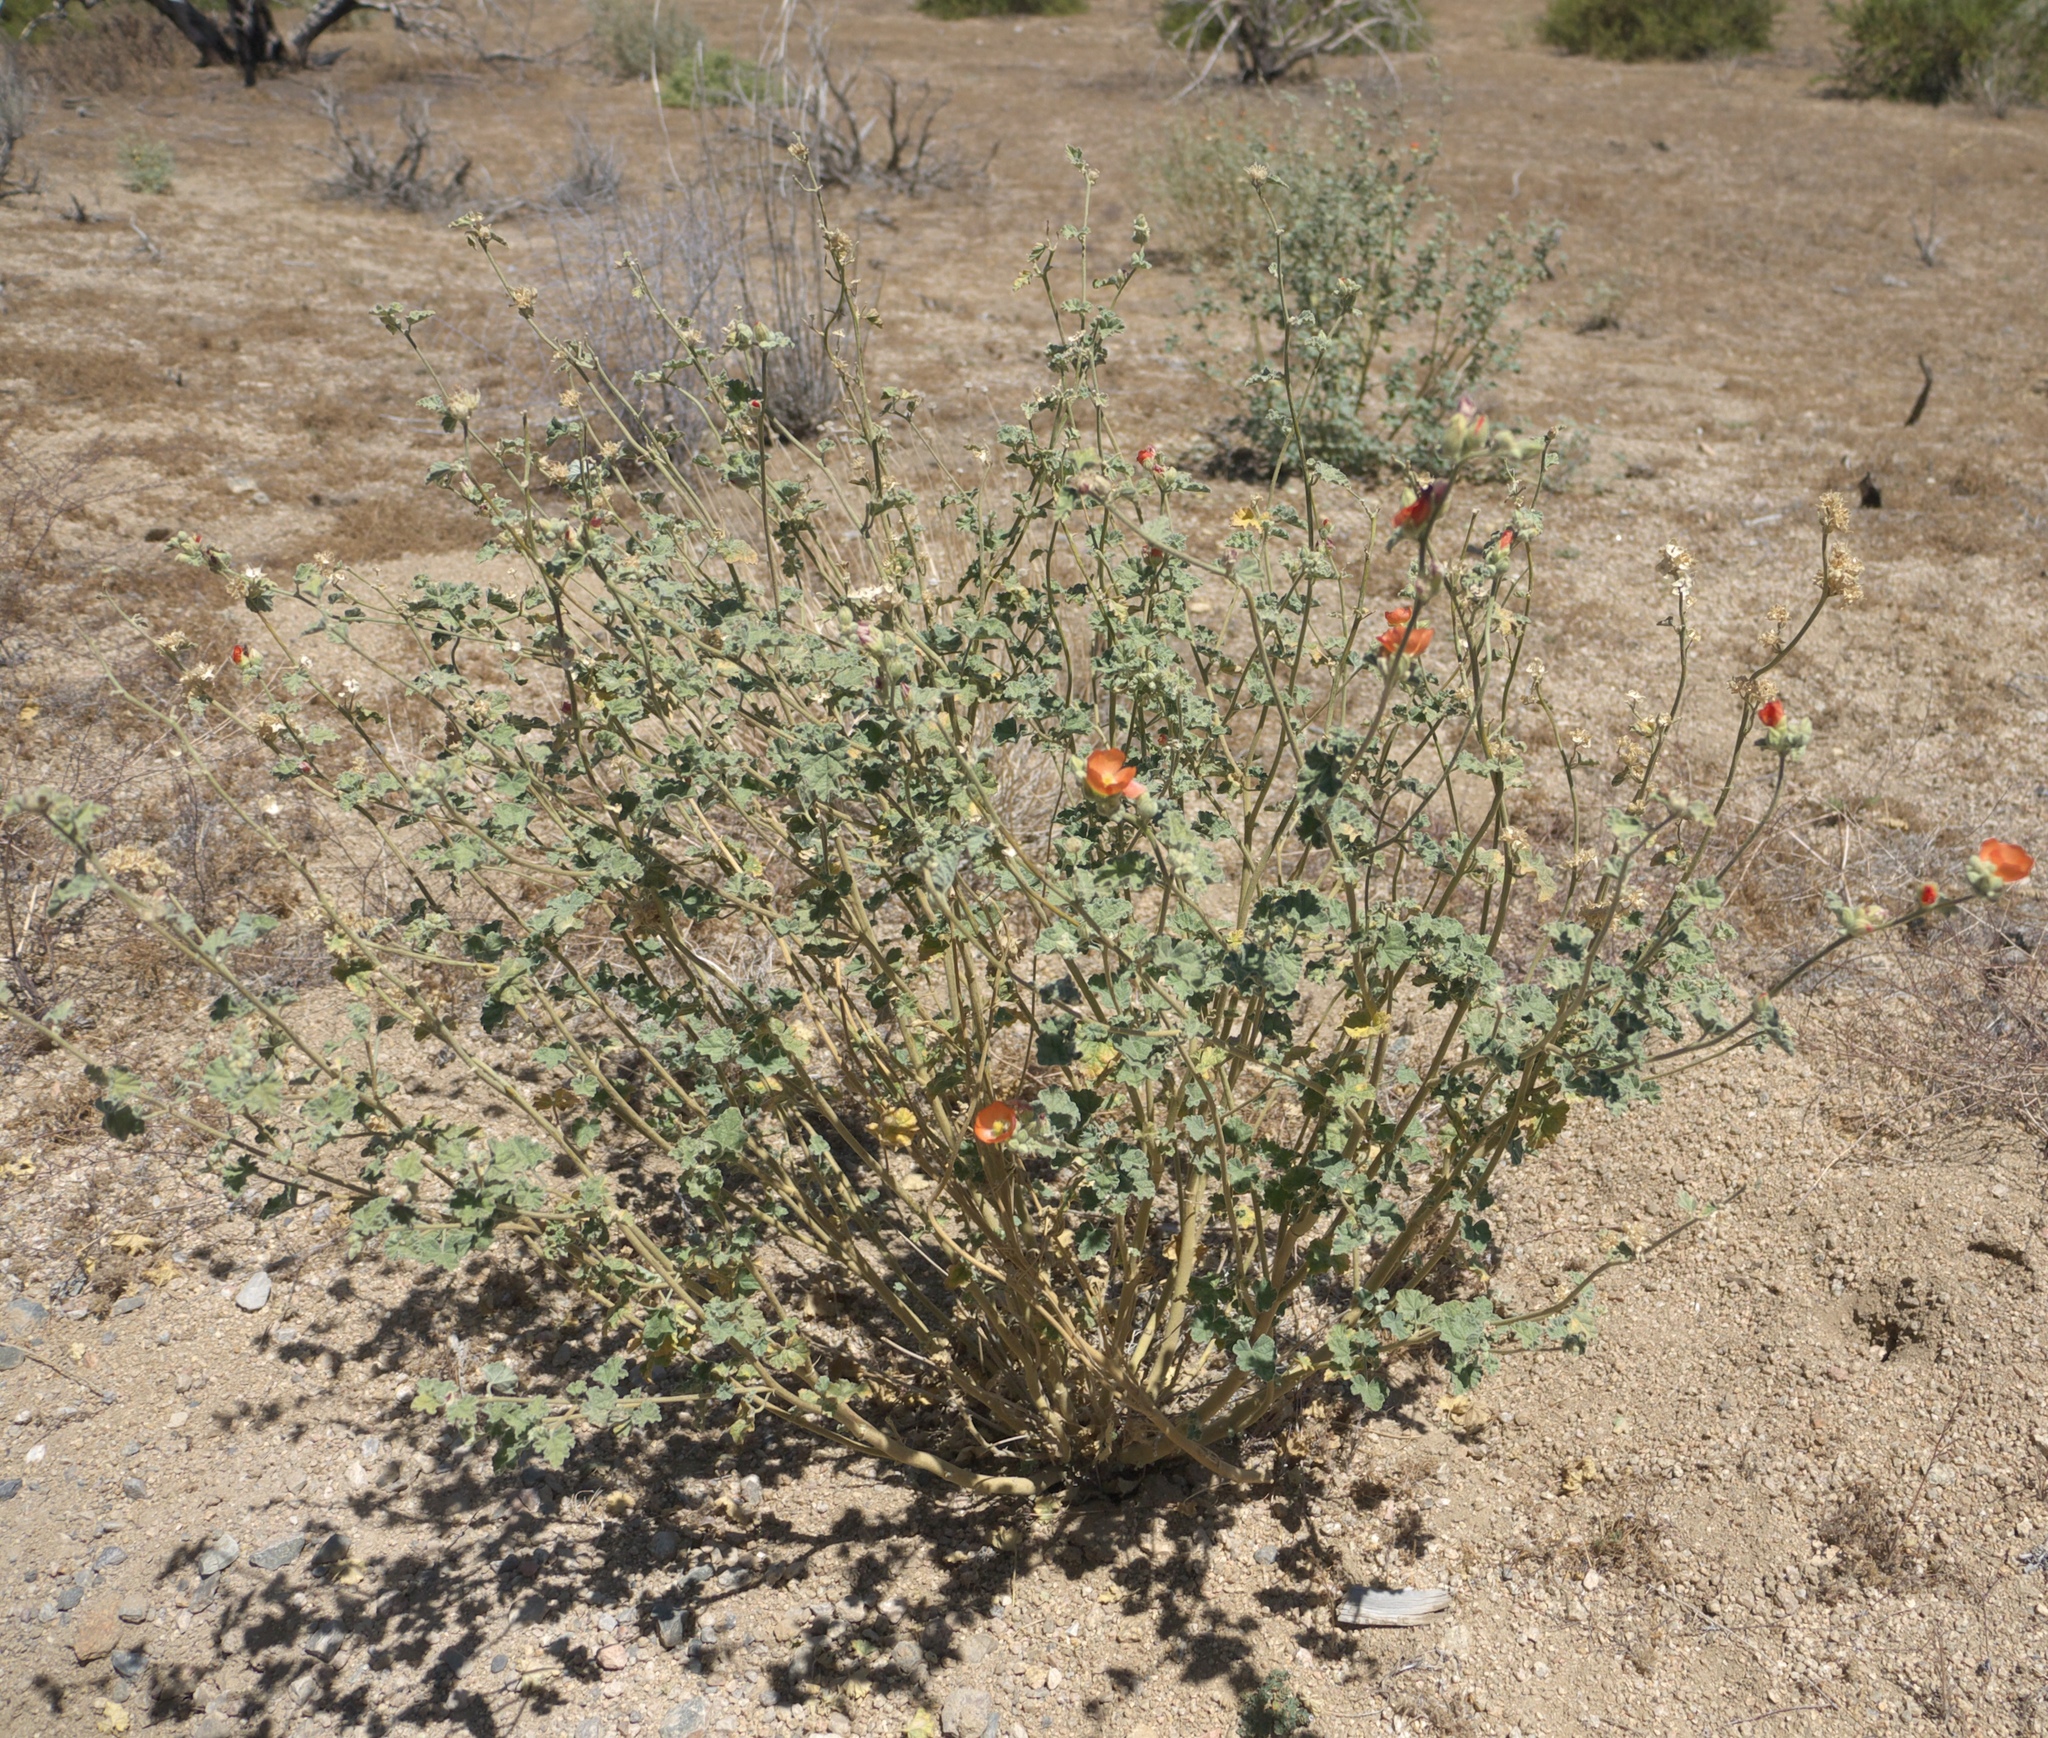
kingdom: Plantae
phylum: Tracheophyta
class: Magnoliopsida
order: Malvales
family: Malvaceae
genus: Sphaeralcea
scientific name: Sphaeralcea ambigua
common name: Apricot globe-mallow
